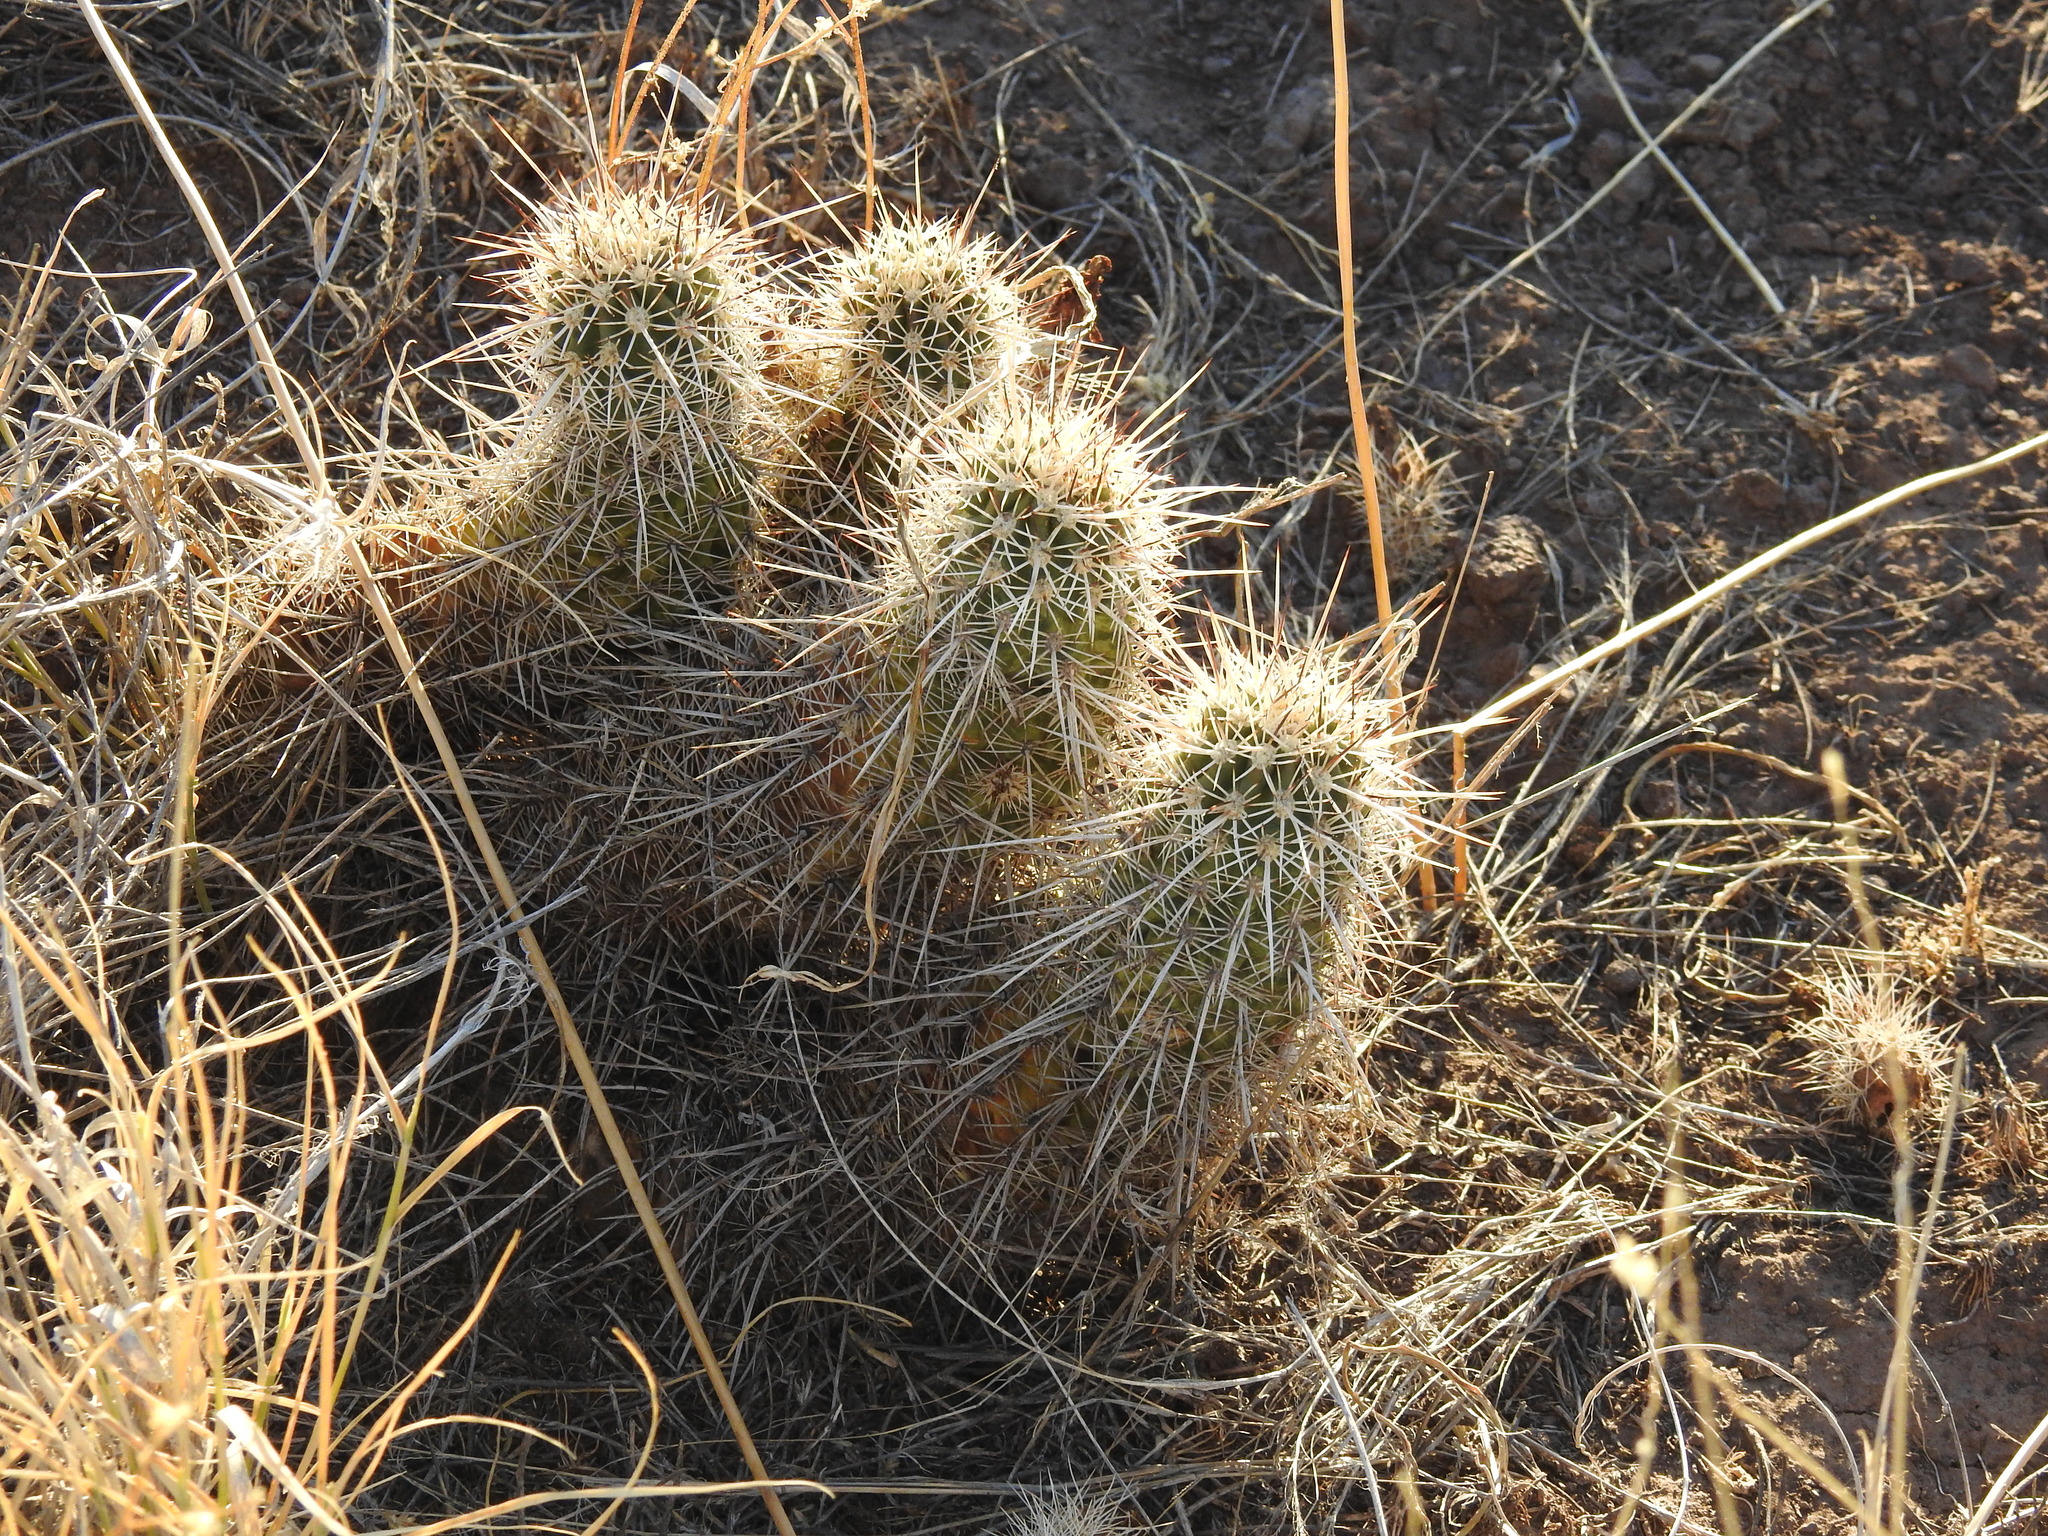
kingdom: Plantae
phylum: Tracheophyta
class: Magnoliopsida
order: Caryophyllales
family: Cactaceae
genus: Echinocereus
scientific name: Echinocereus fasciculatus
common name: Bundle hedgehog
